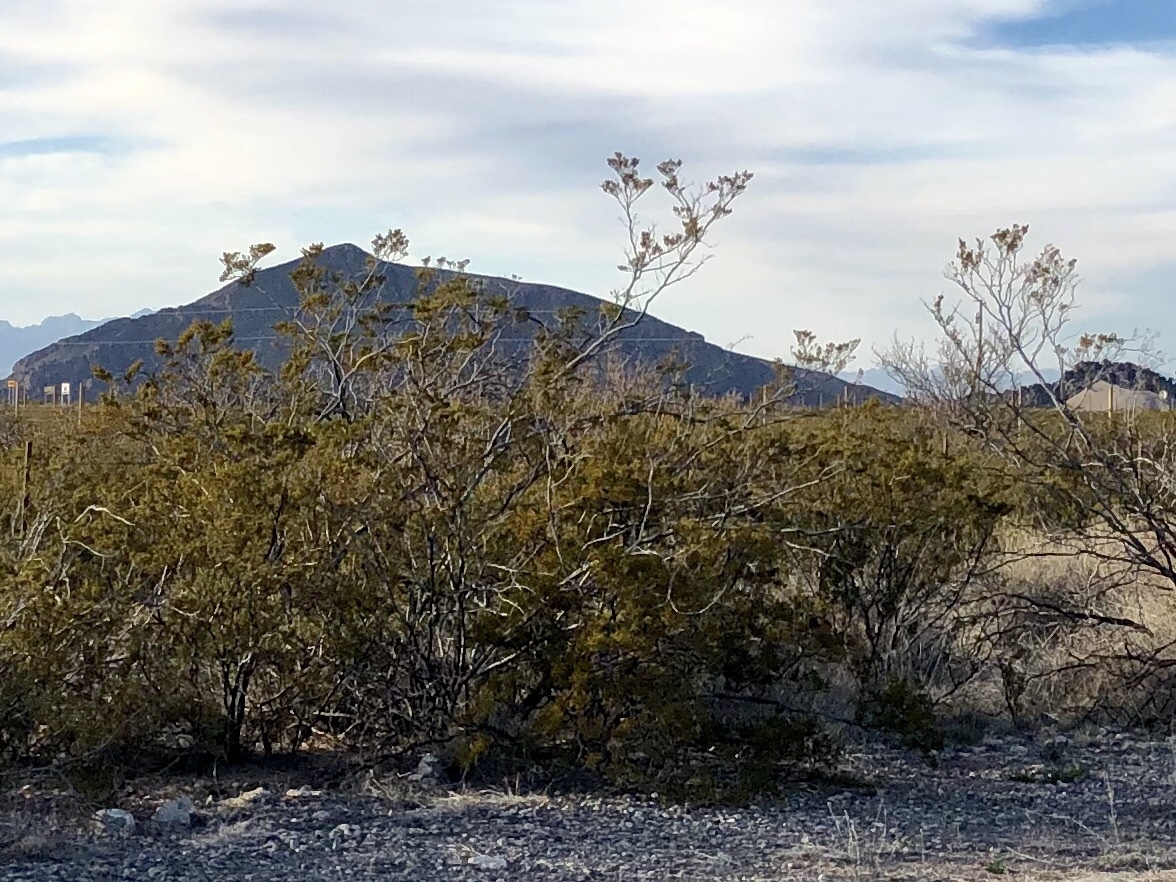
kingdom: Plantae
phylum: Tracheophyta
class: Magnoliopsida
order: Zygophyllales
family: Zygophyllaceae
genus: Larrea
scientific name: Larrea tridentata
